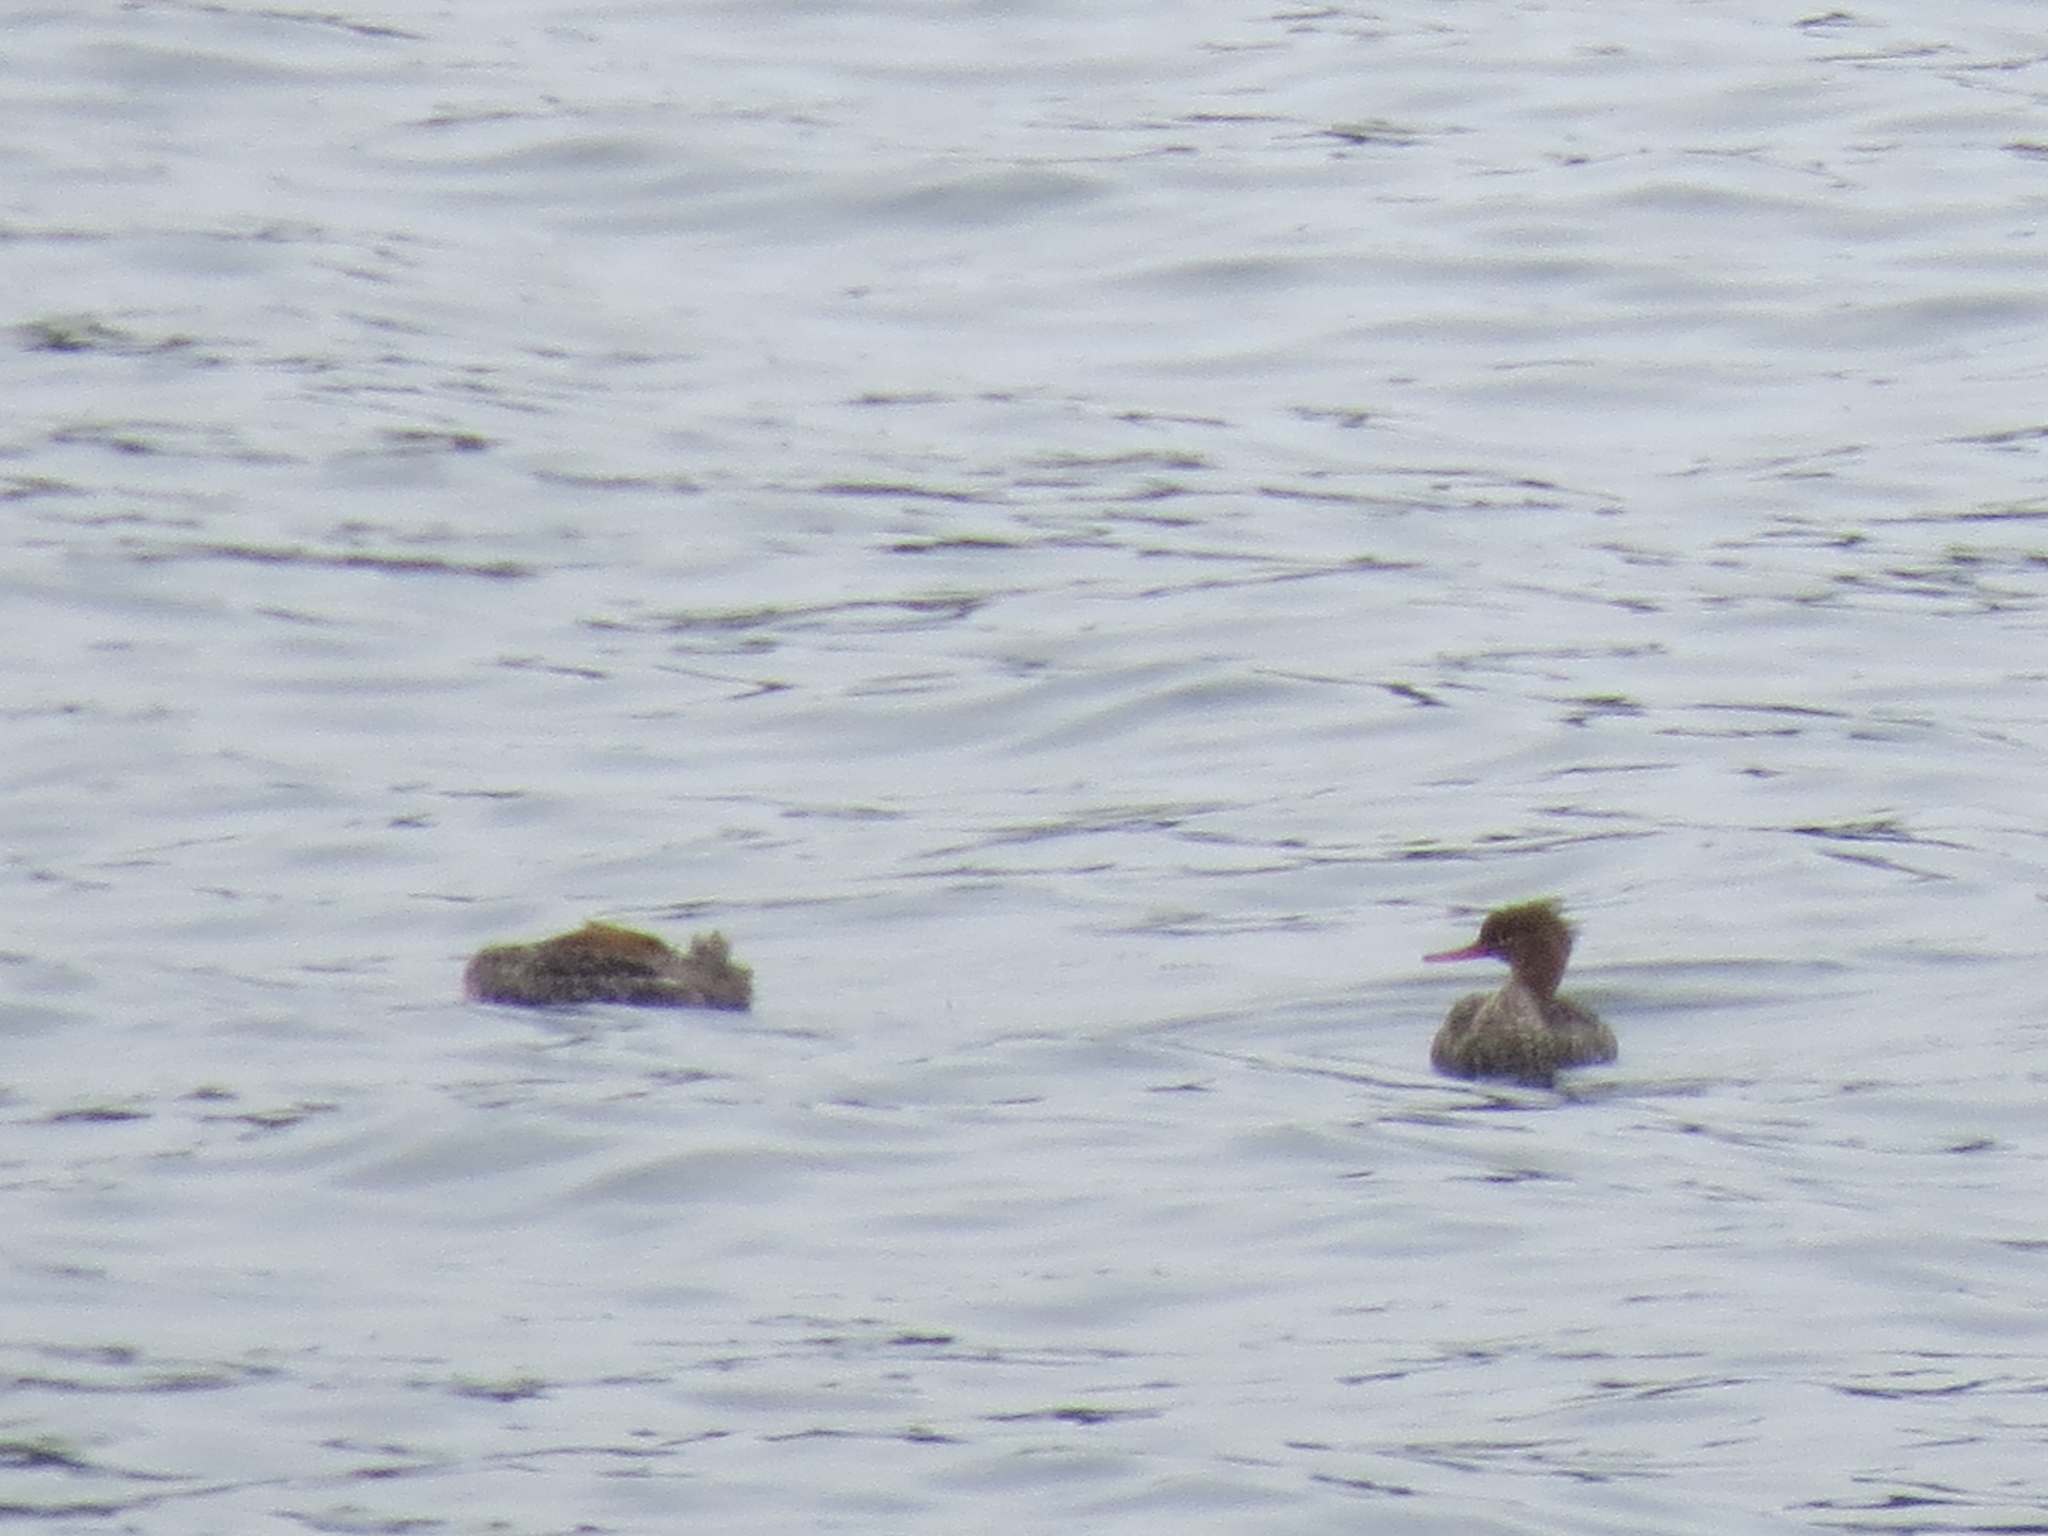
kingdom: Animalia
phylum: Chordata
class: Aves
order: Anseriformes
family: Anatidae
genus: Mergus
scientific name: Mergus serrator
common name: Red-breasted merganser
